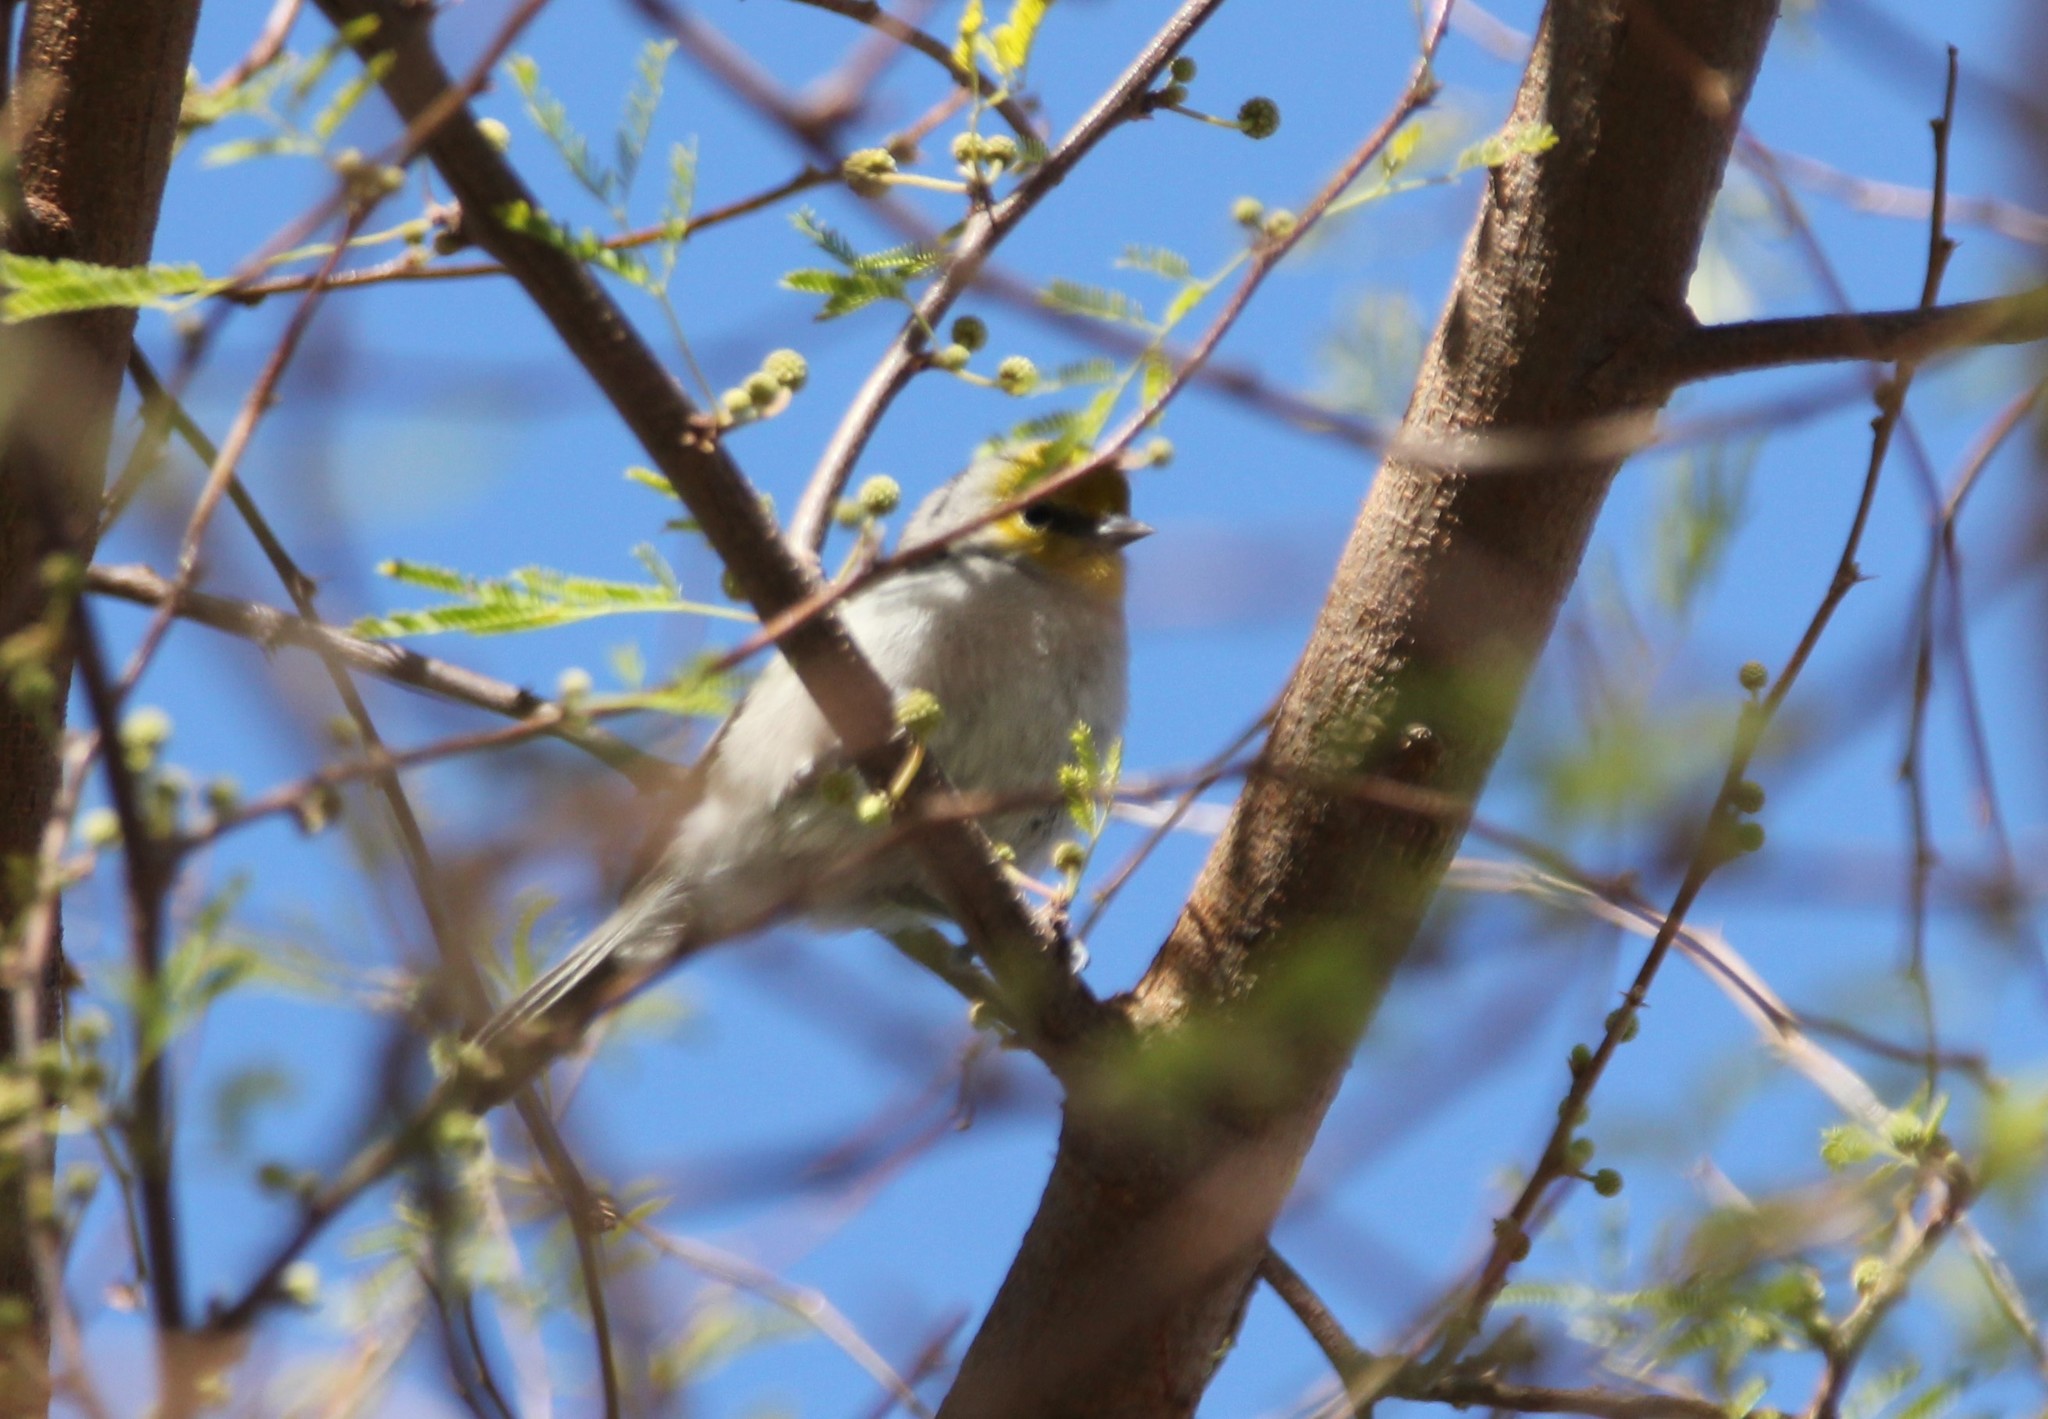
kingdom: Animalia
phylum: Chordata
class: Aves
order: Passeriformes
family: Remizidae
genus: Auriparus
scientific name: Auriparus flaviceps
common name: Verdin
